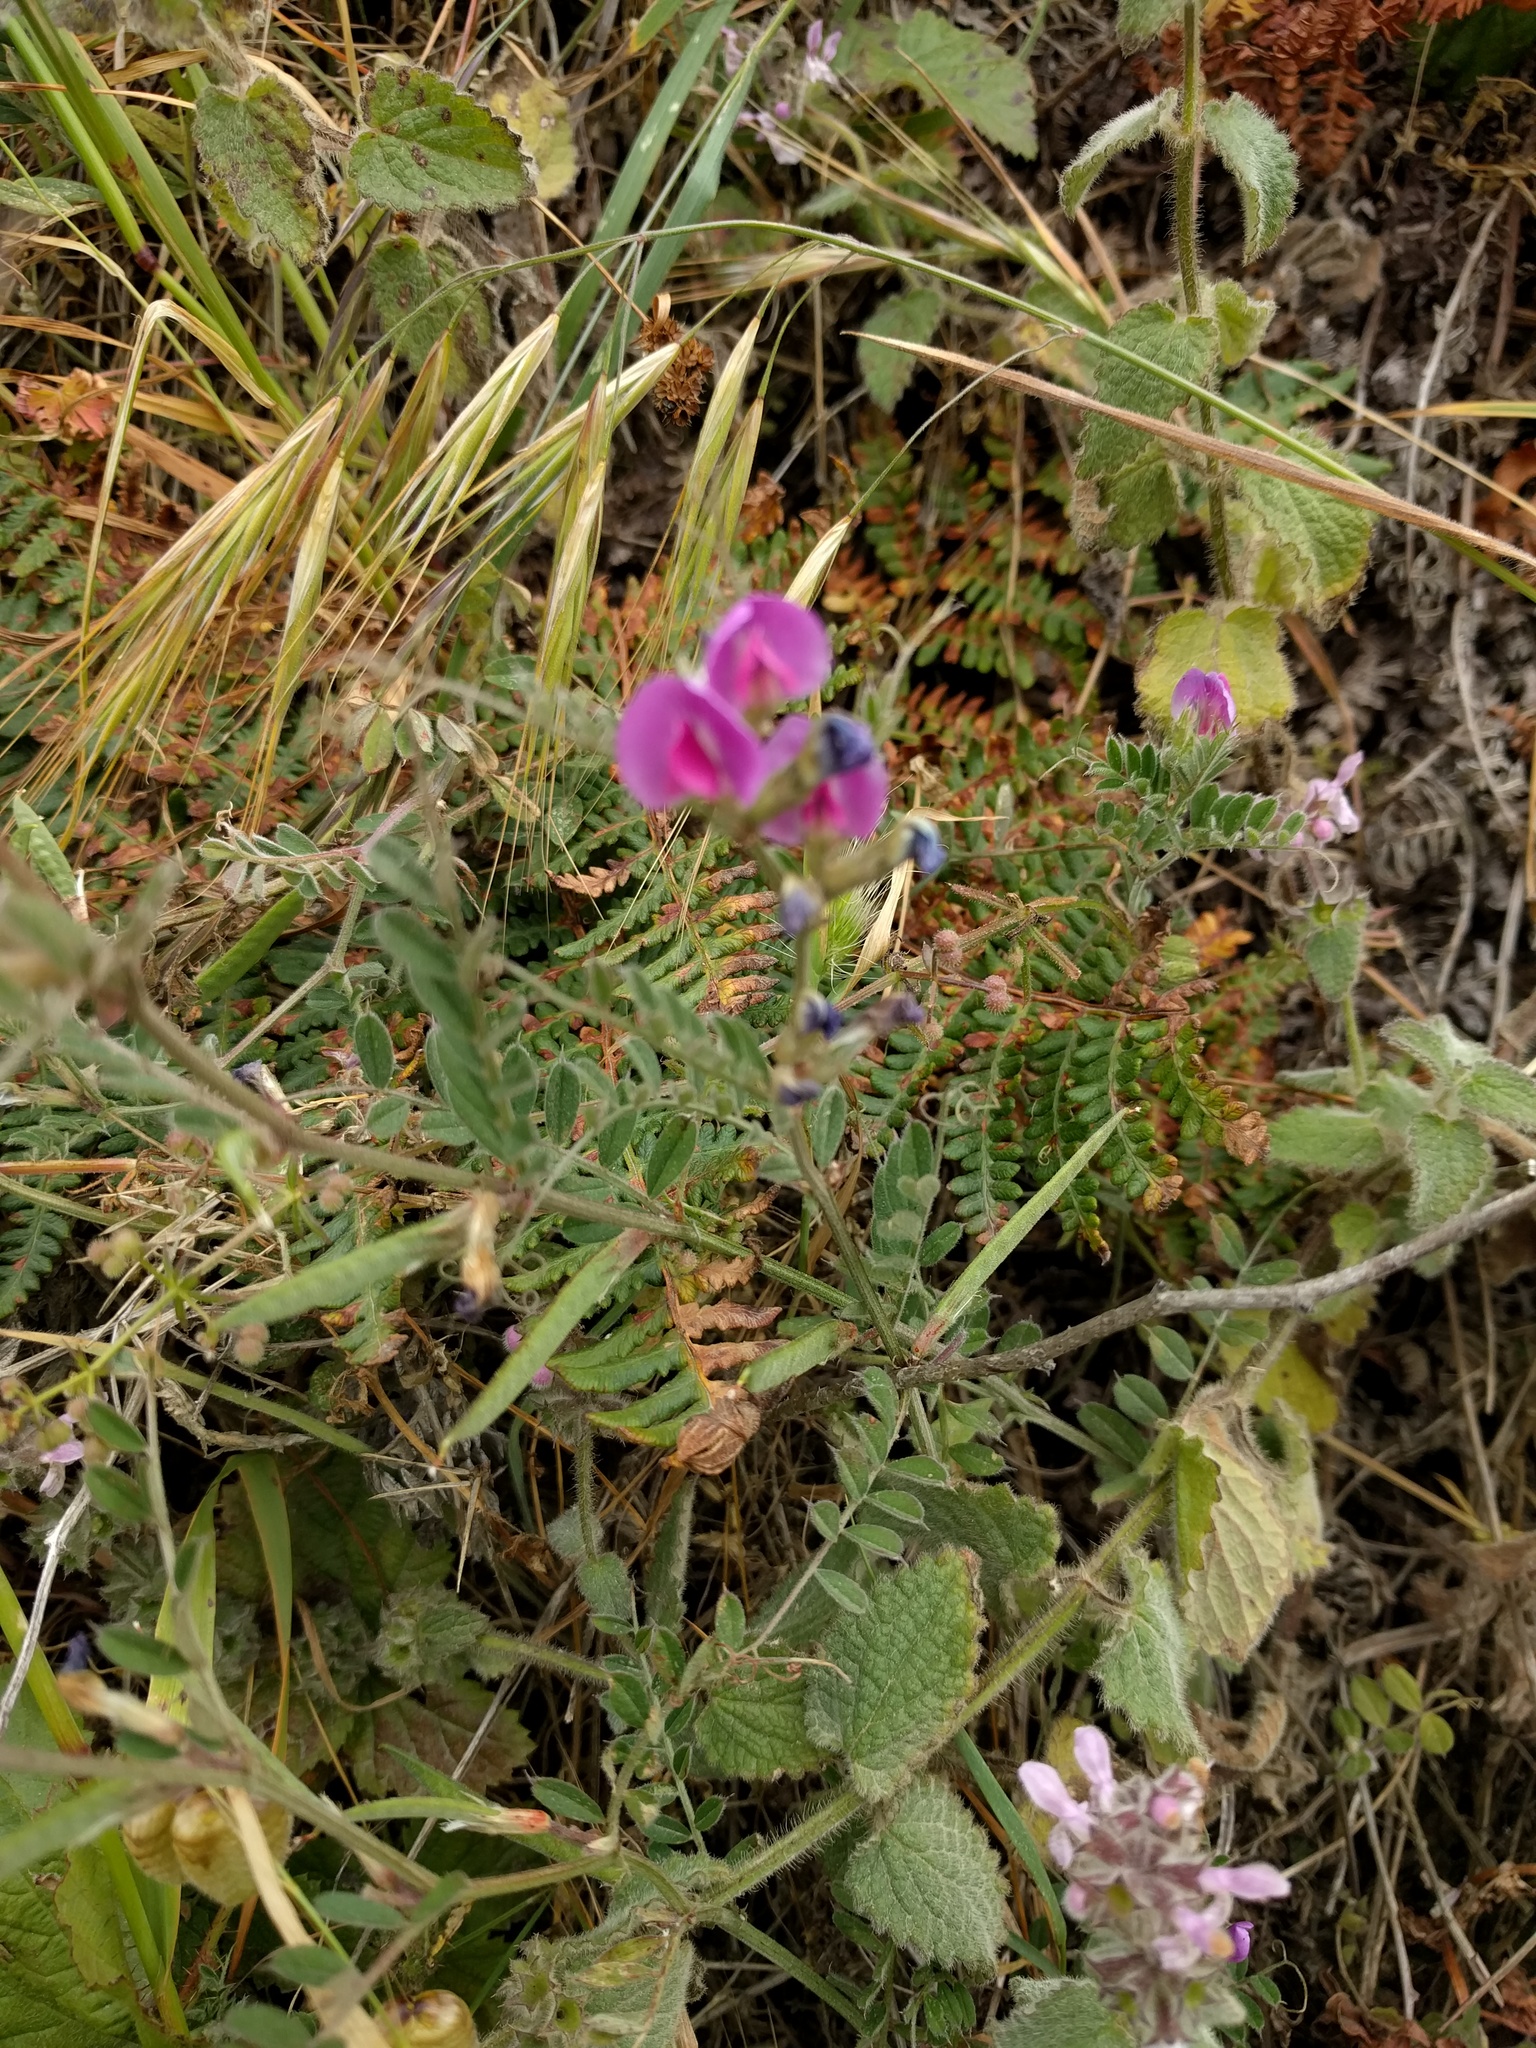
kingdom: Plantae
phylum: Tracheophyta
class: Magnoliopsida
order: Fabales
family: Fabaceae
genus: Vicia
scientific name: Vicia sativa
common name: Garden vetch
